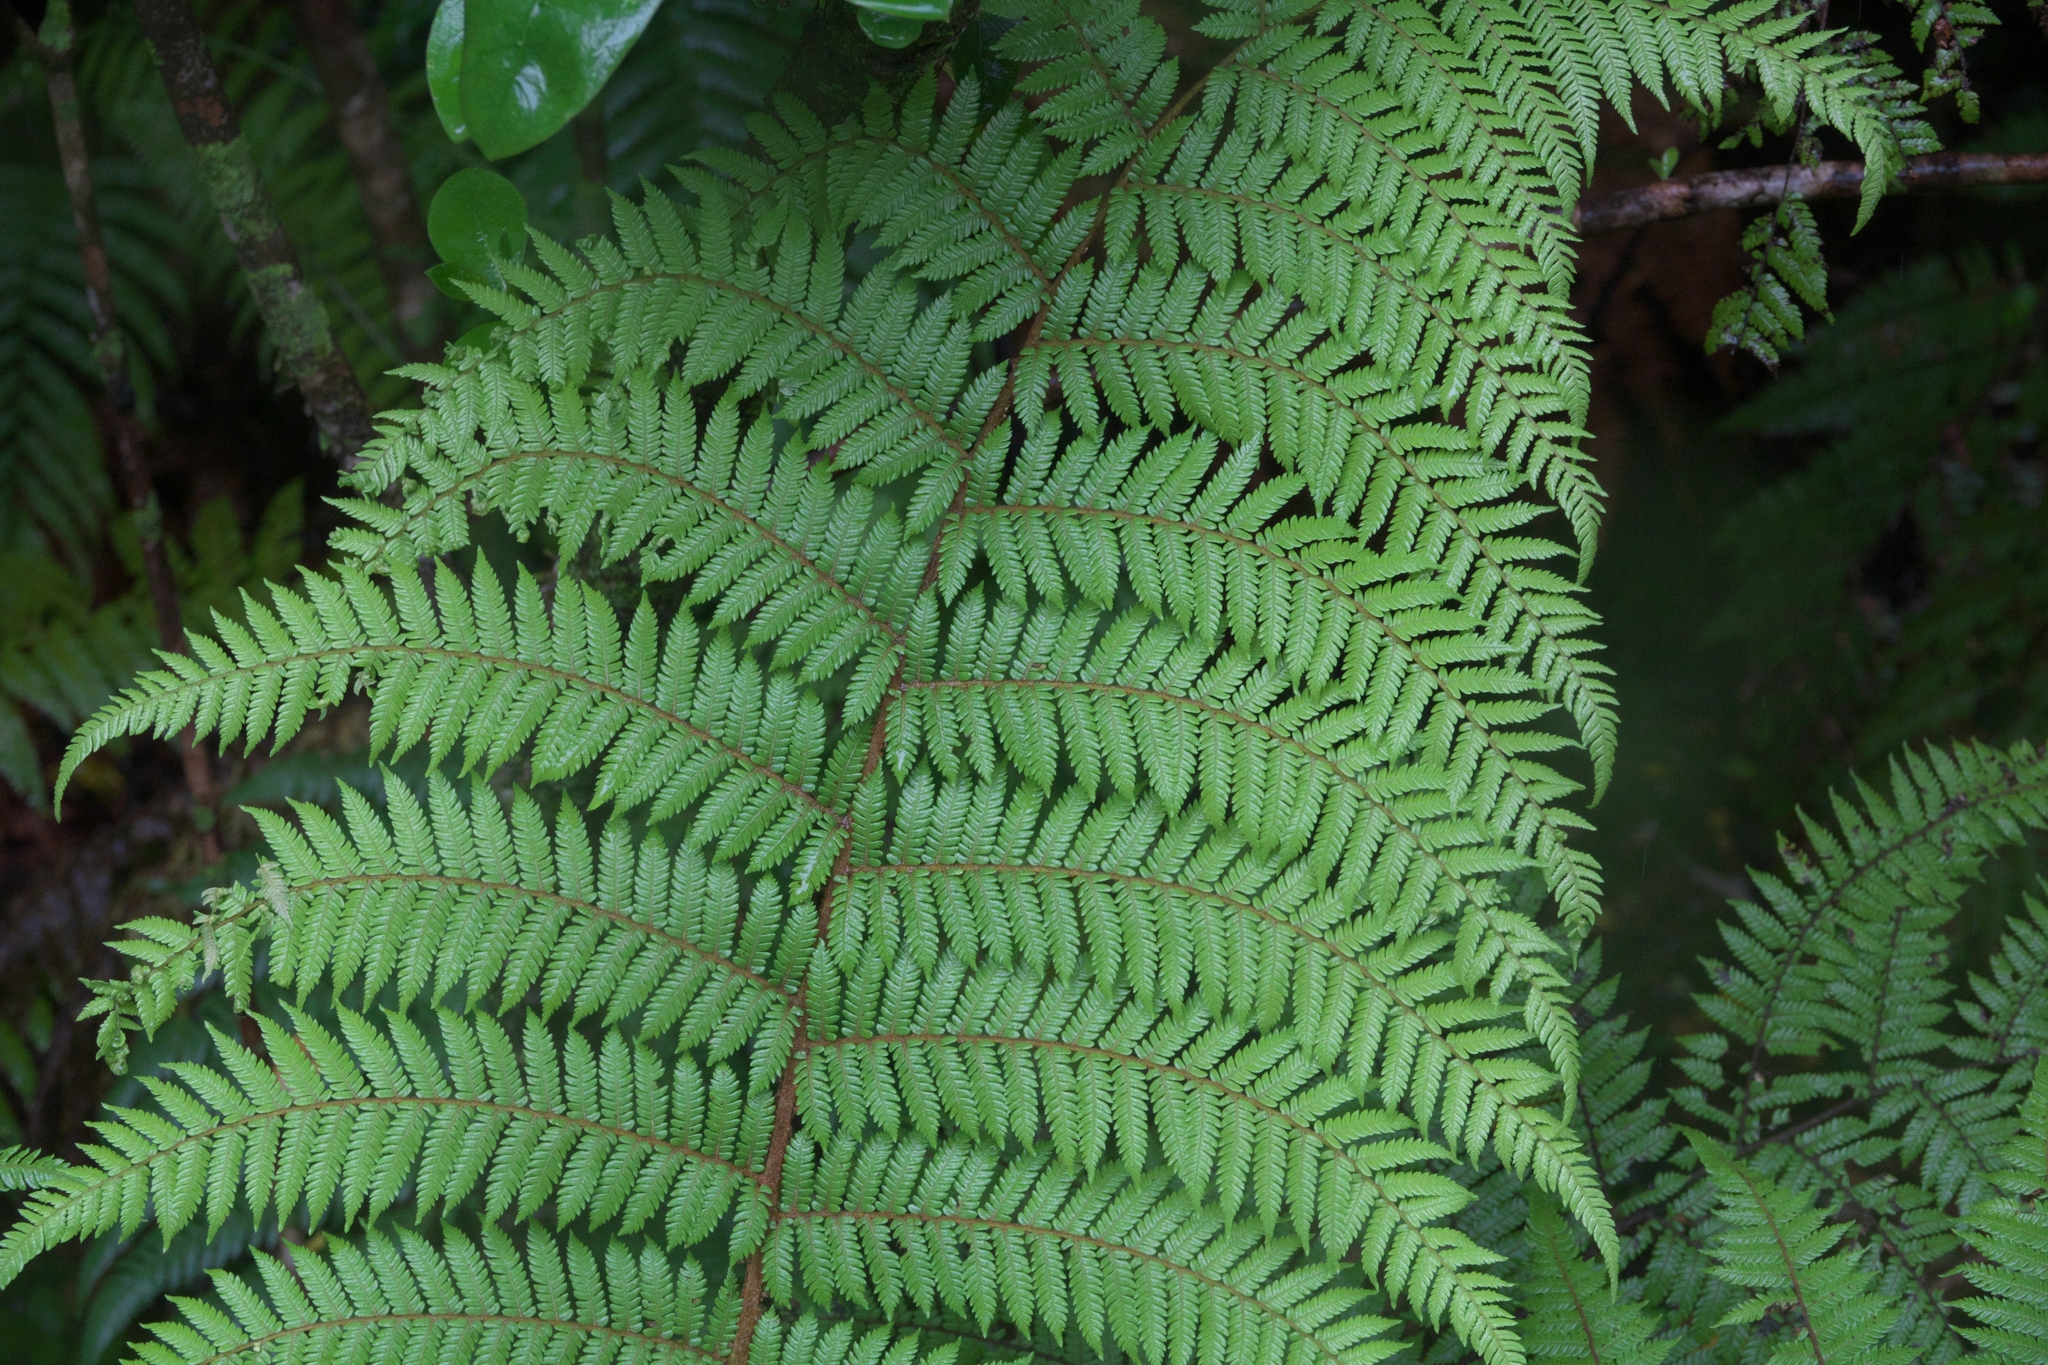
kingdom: Plantae
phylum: Tracheophyta
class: Polypodiopsida
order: Cyatheales
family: Cyatheaceae
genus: Alsophila
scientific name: Alsophila smithii
